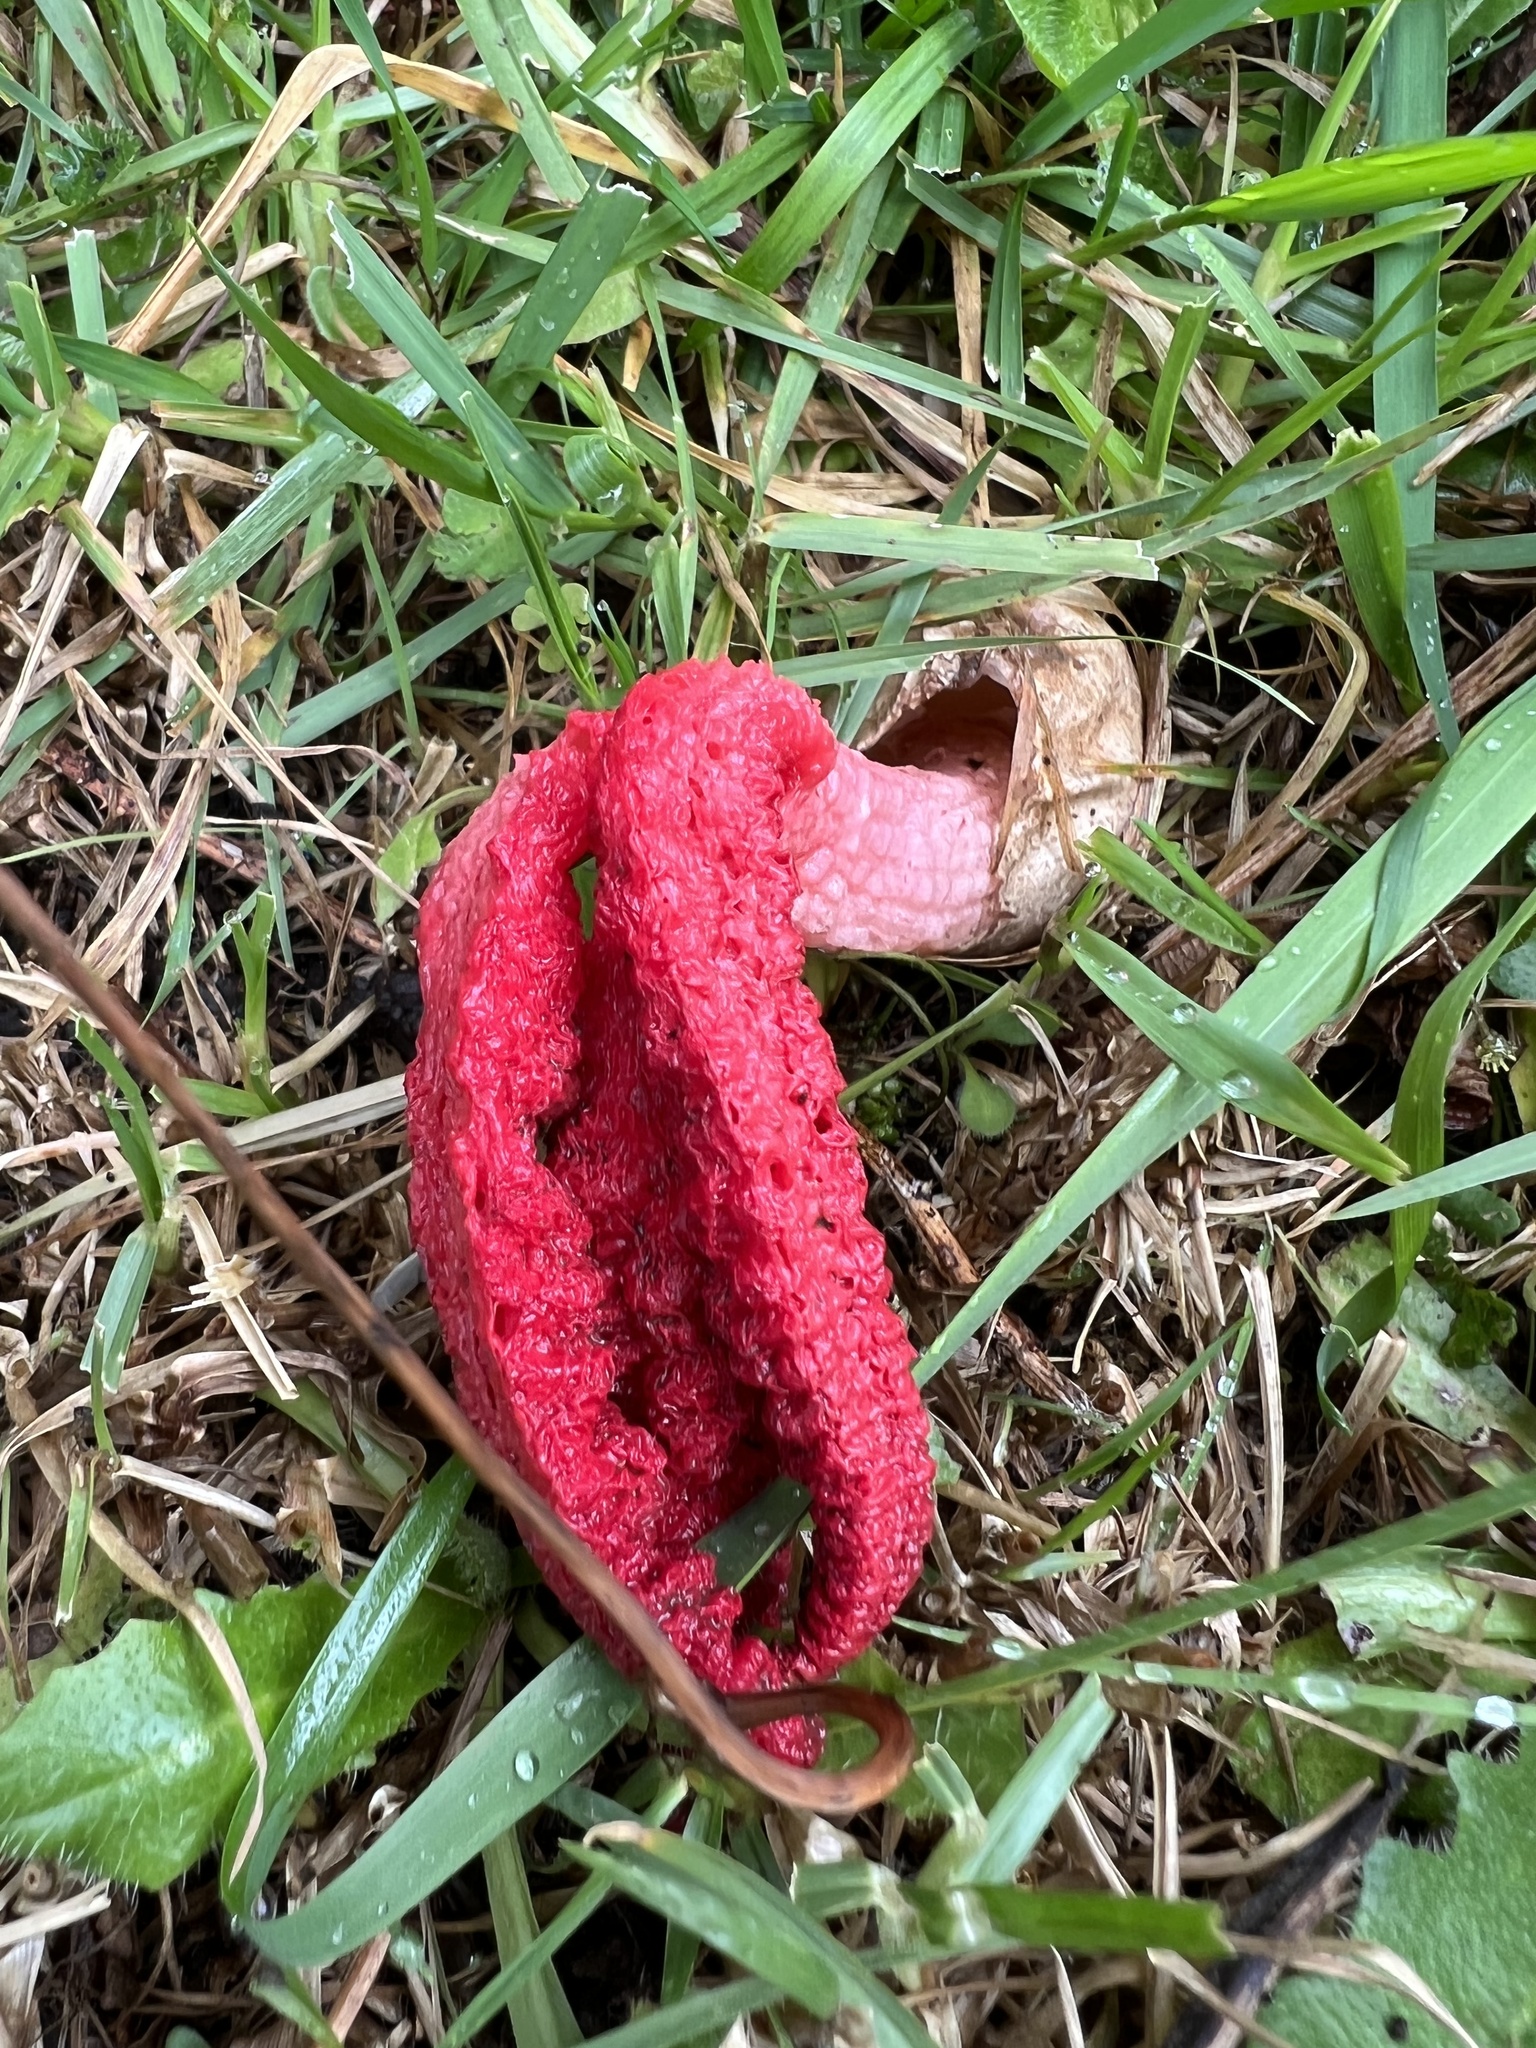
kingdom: Fungi
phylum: Basidiomycota
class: Agaricomycetes
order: Phallales
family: Phallaceae
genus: Clathrus
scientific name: Clathrus archeri
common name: Devil's fingers
